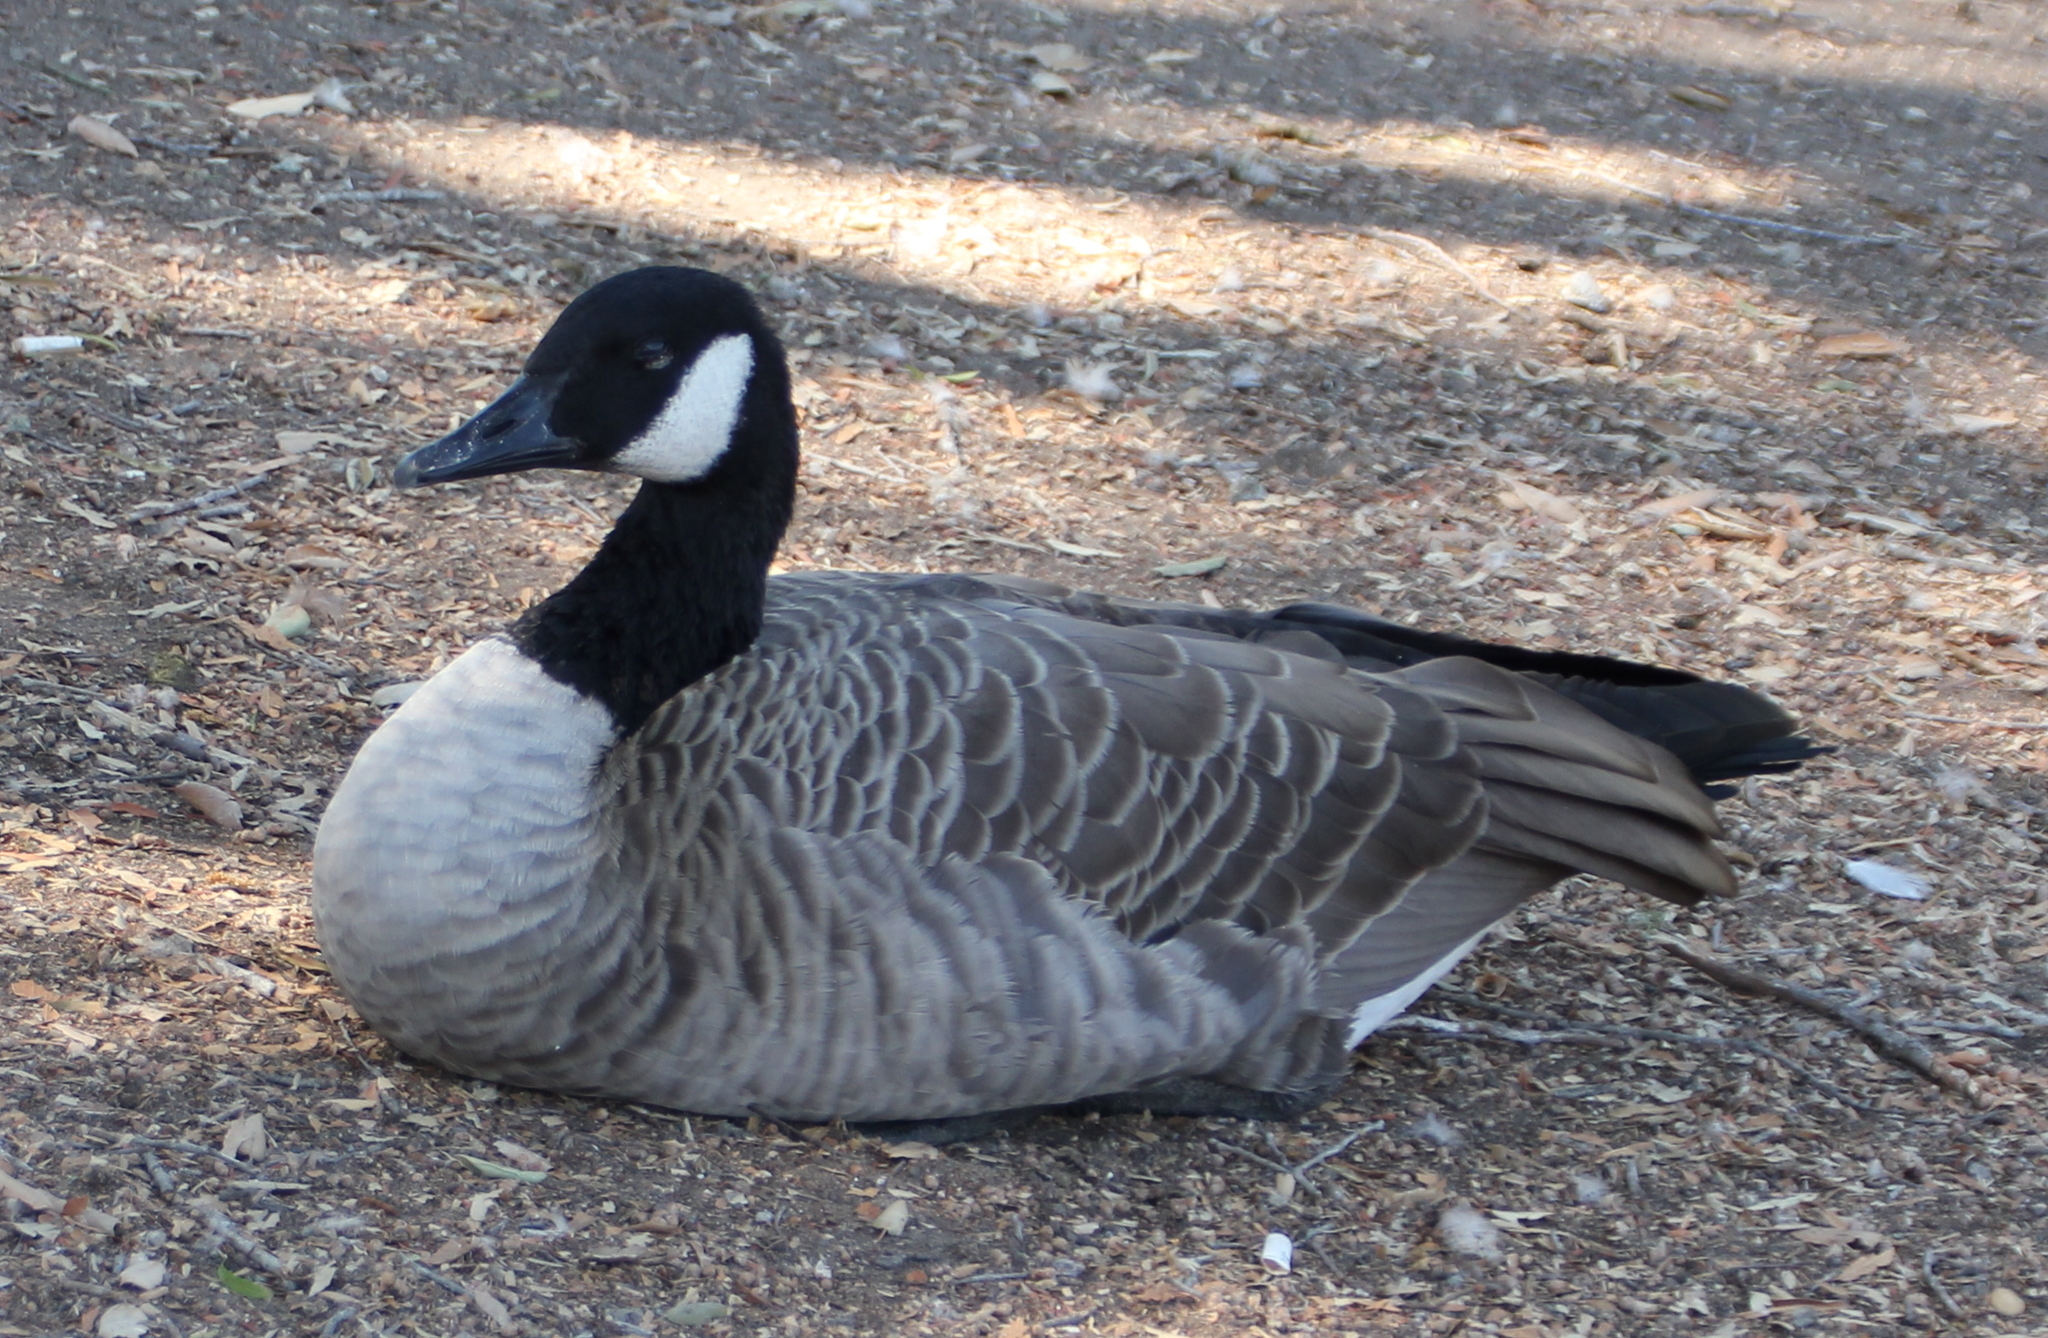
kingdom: Animalia
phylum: Chordata
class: Aves
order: Anseriformes
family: Anatidae
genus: Branta
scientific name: Branta canadensis
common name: Canada goose
